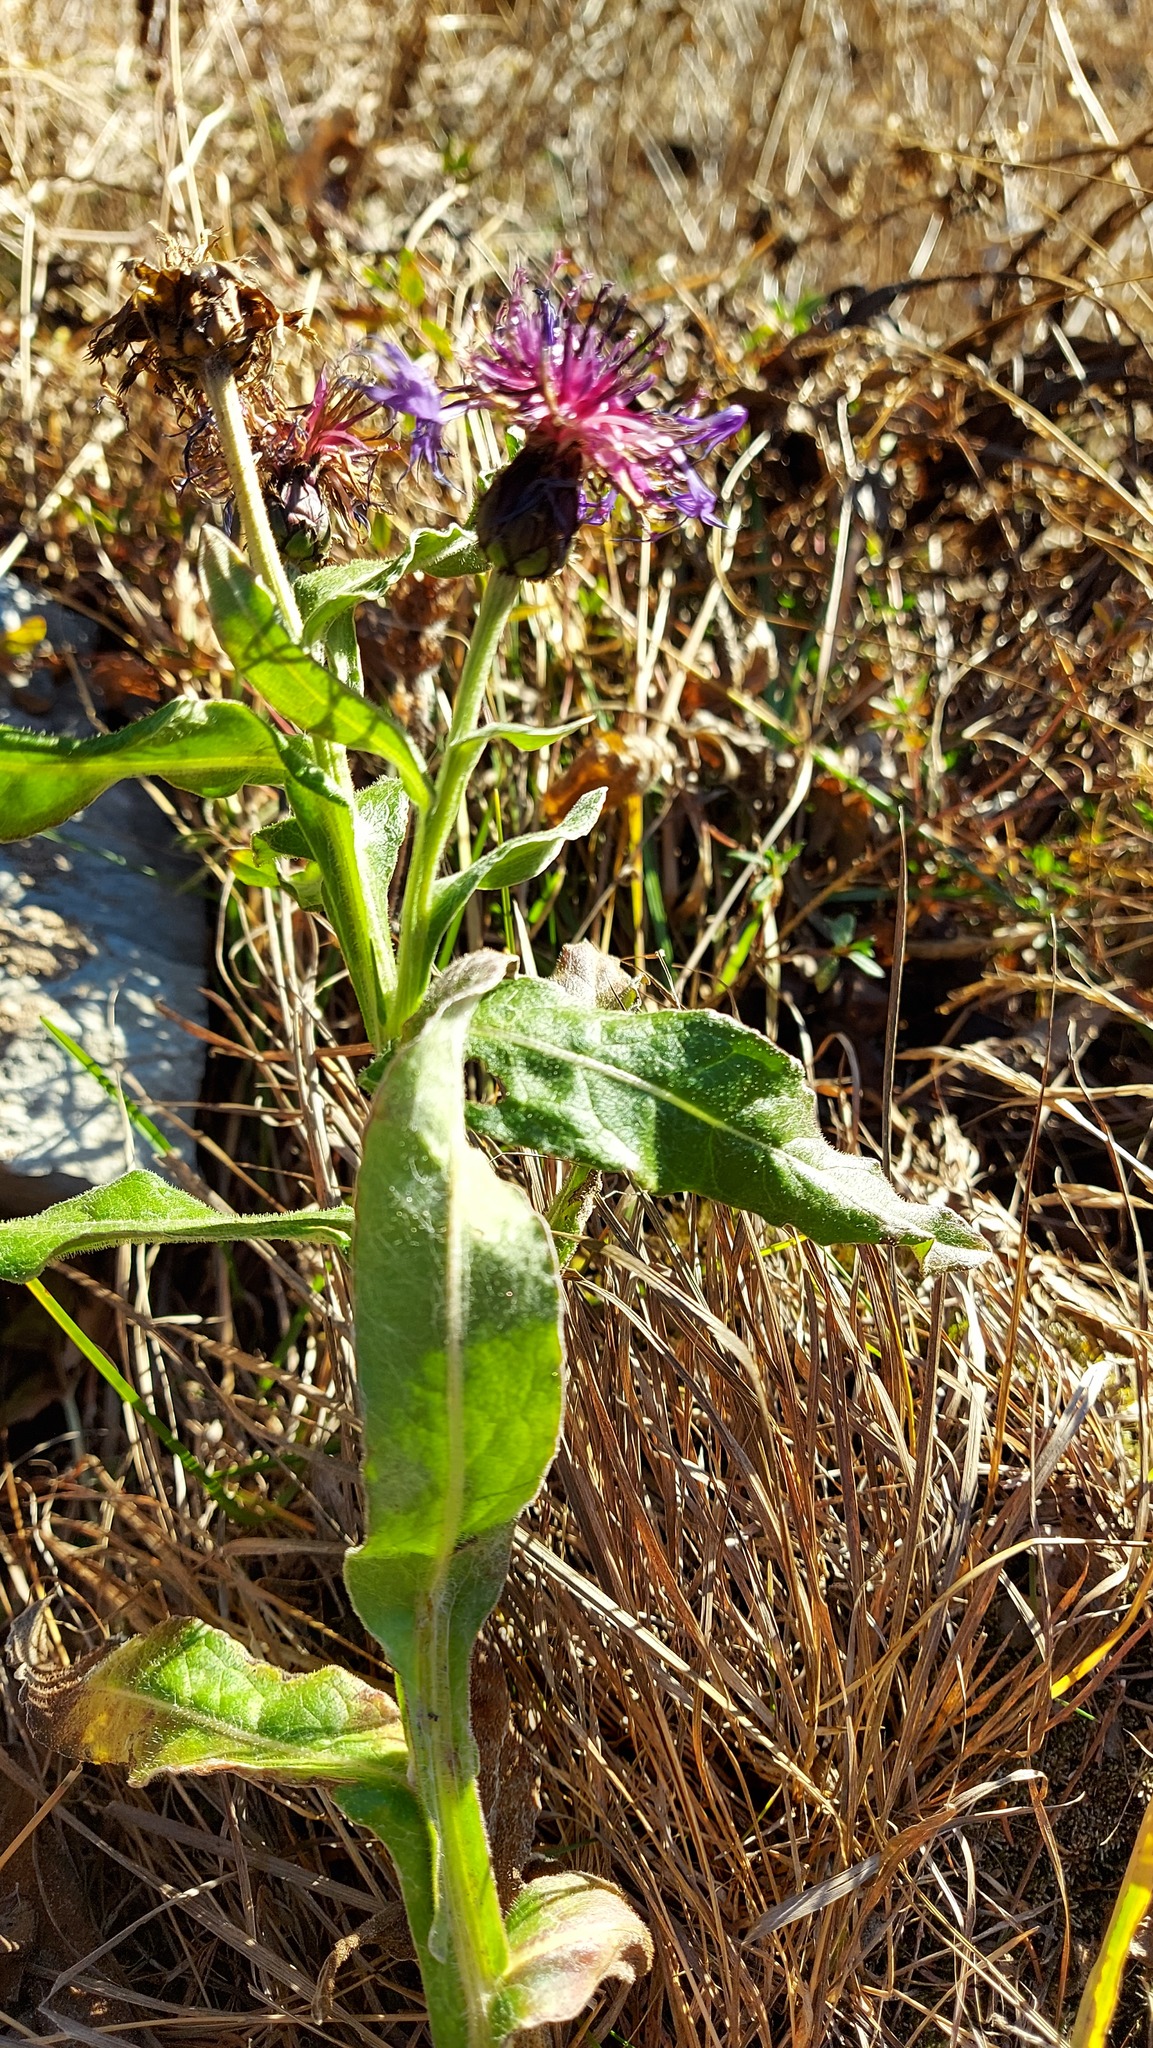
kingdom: Plantae
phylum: Tracheophyta
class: Magnoliopsida
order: Asterales
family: Asteraceae
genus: Centaurea
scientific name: Centaurea montana
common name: Perennial cornflower
